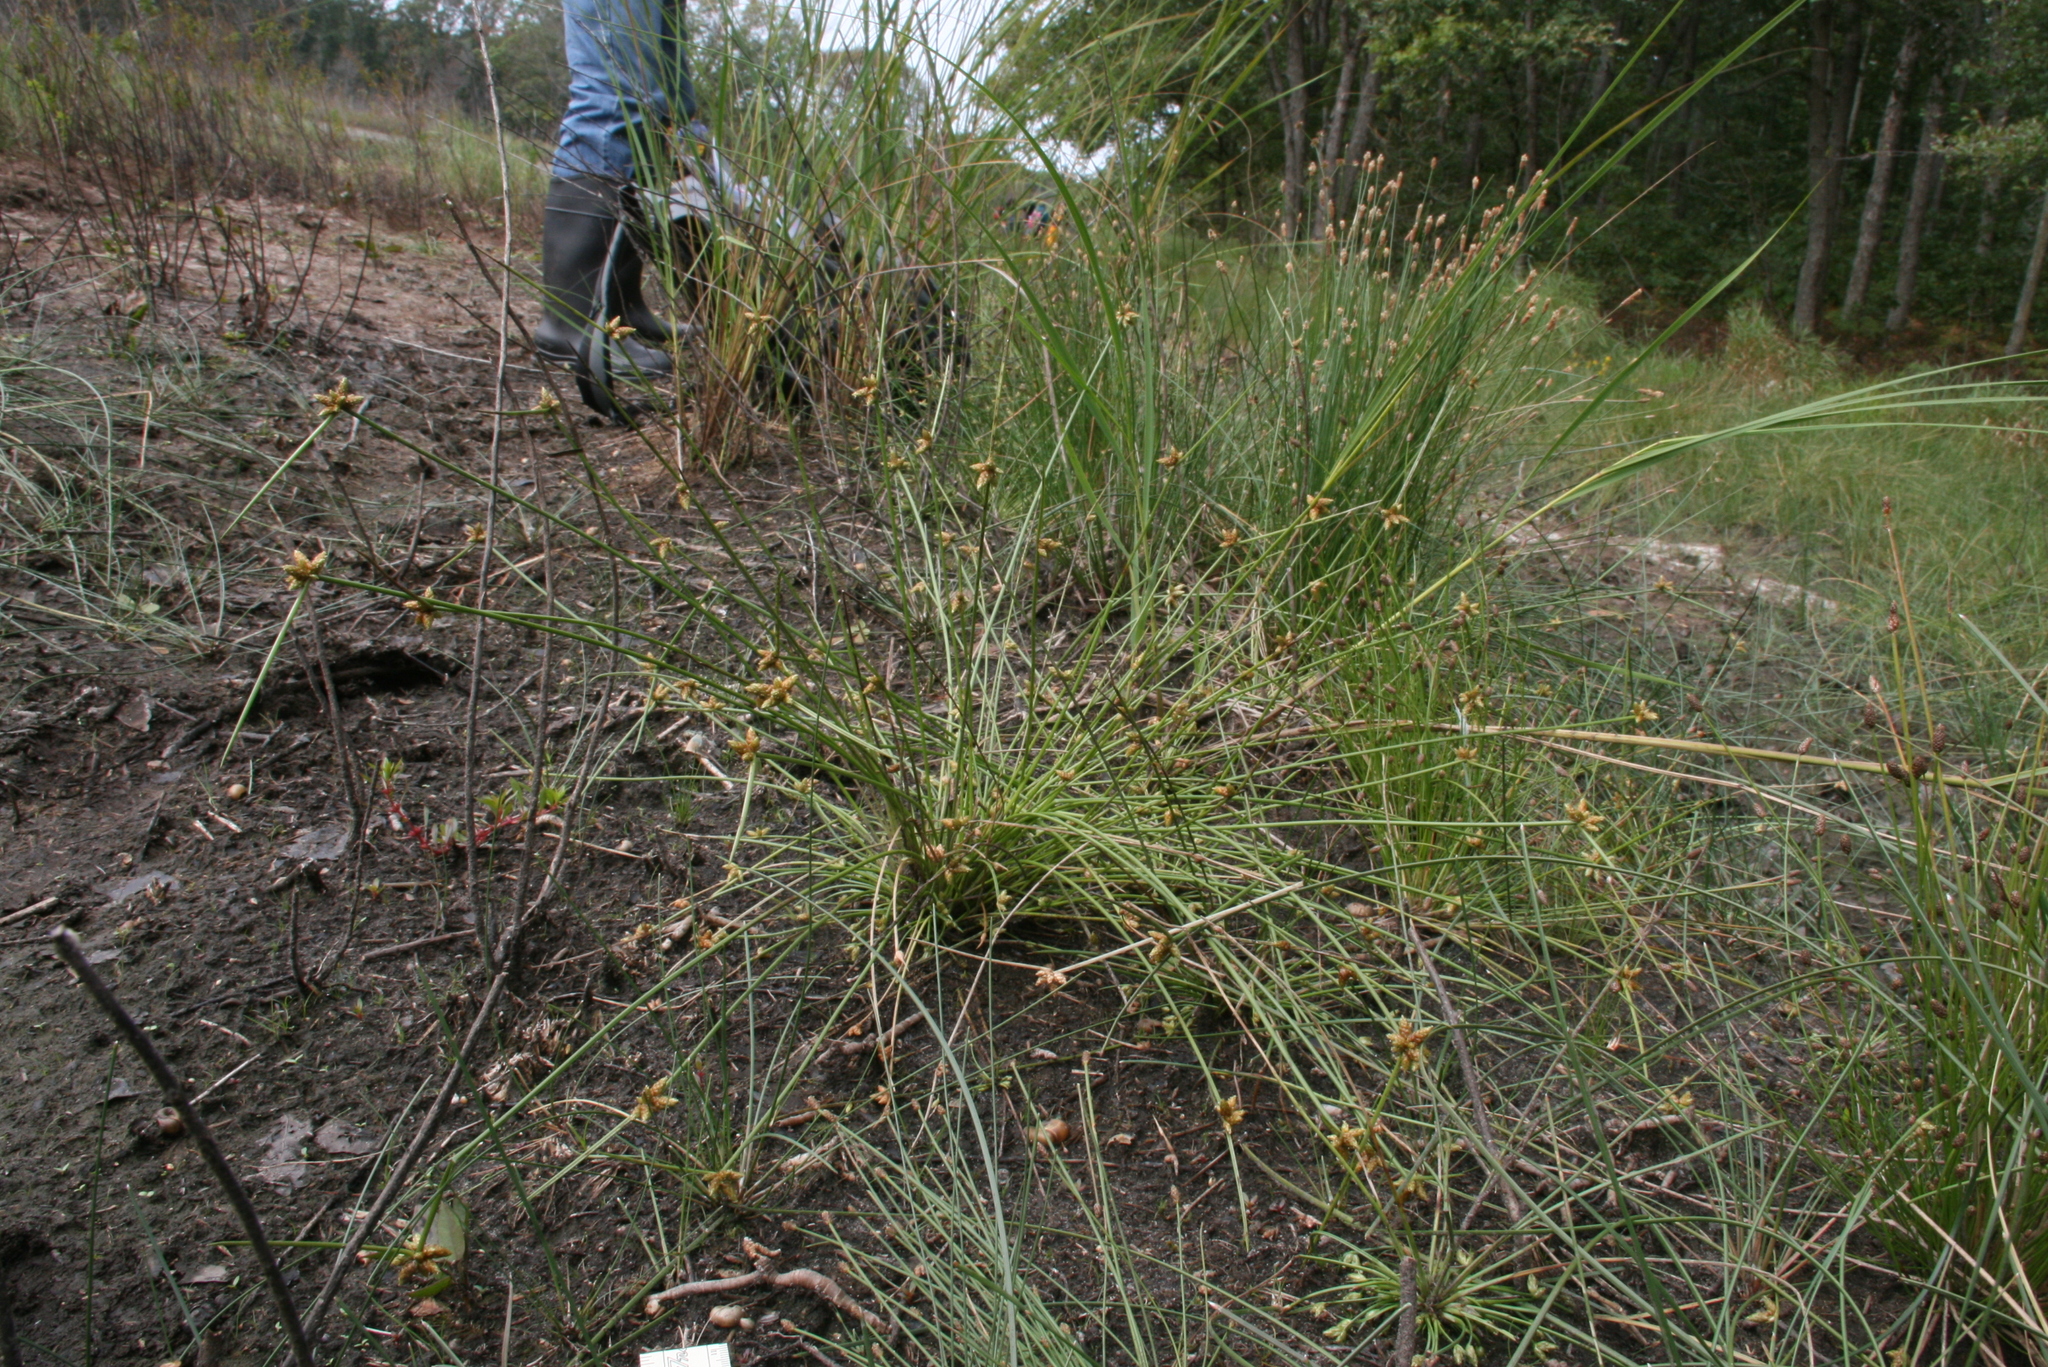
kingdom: Plantae
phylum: Tracheophyta
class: Liliopsida
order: Poales
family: Cyperaceae
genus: Schoenoplectiella
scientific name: Schoenoplectiella purshiana
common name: Weak-stalked bulrush
